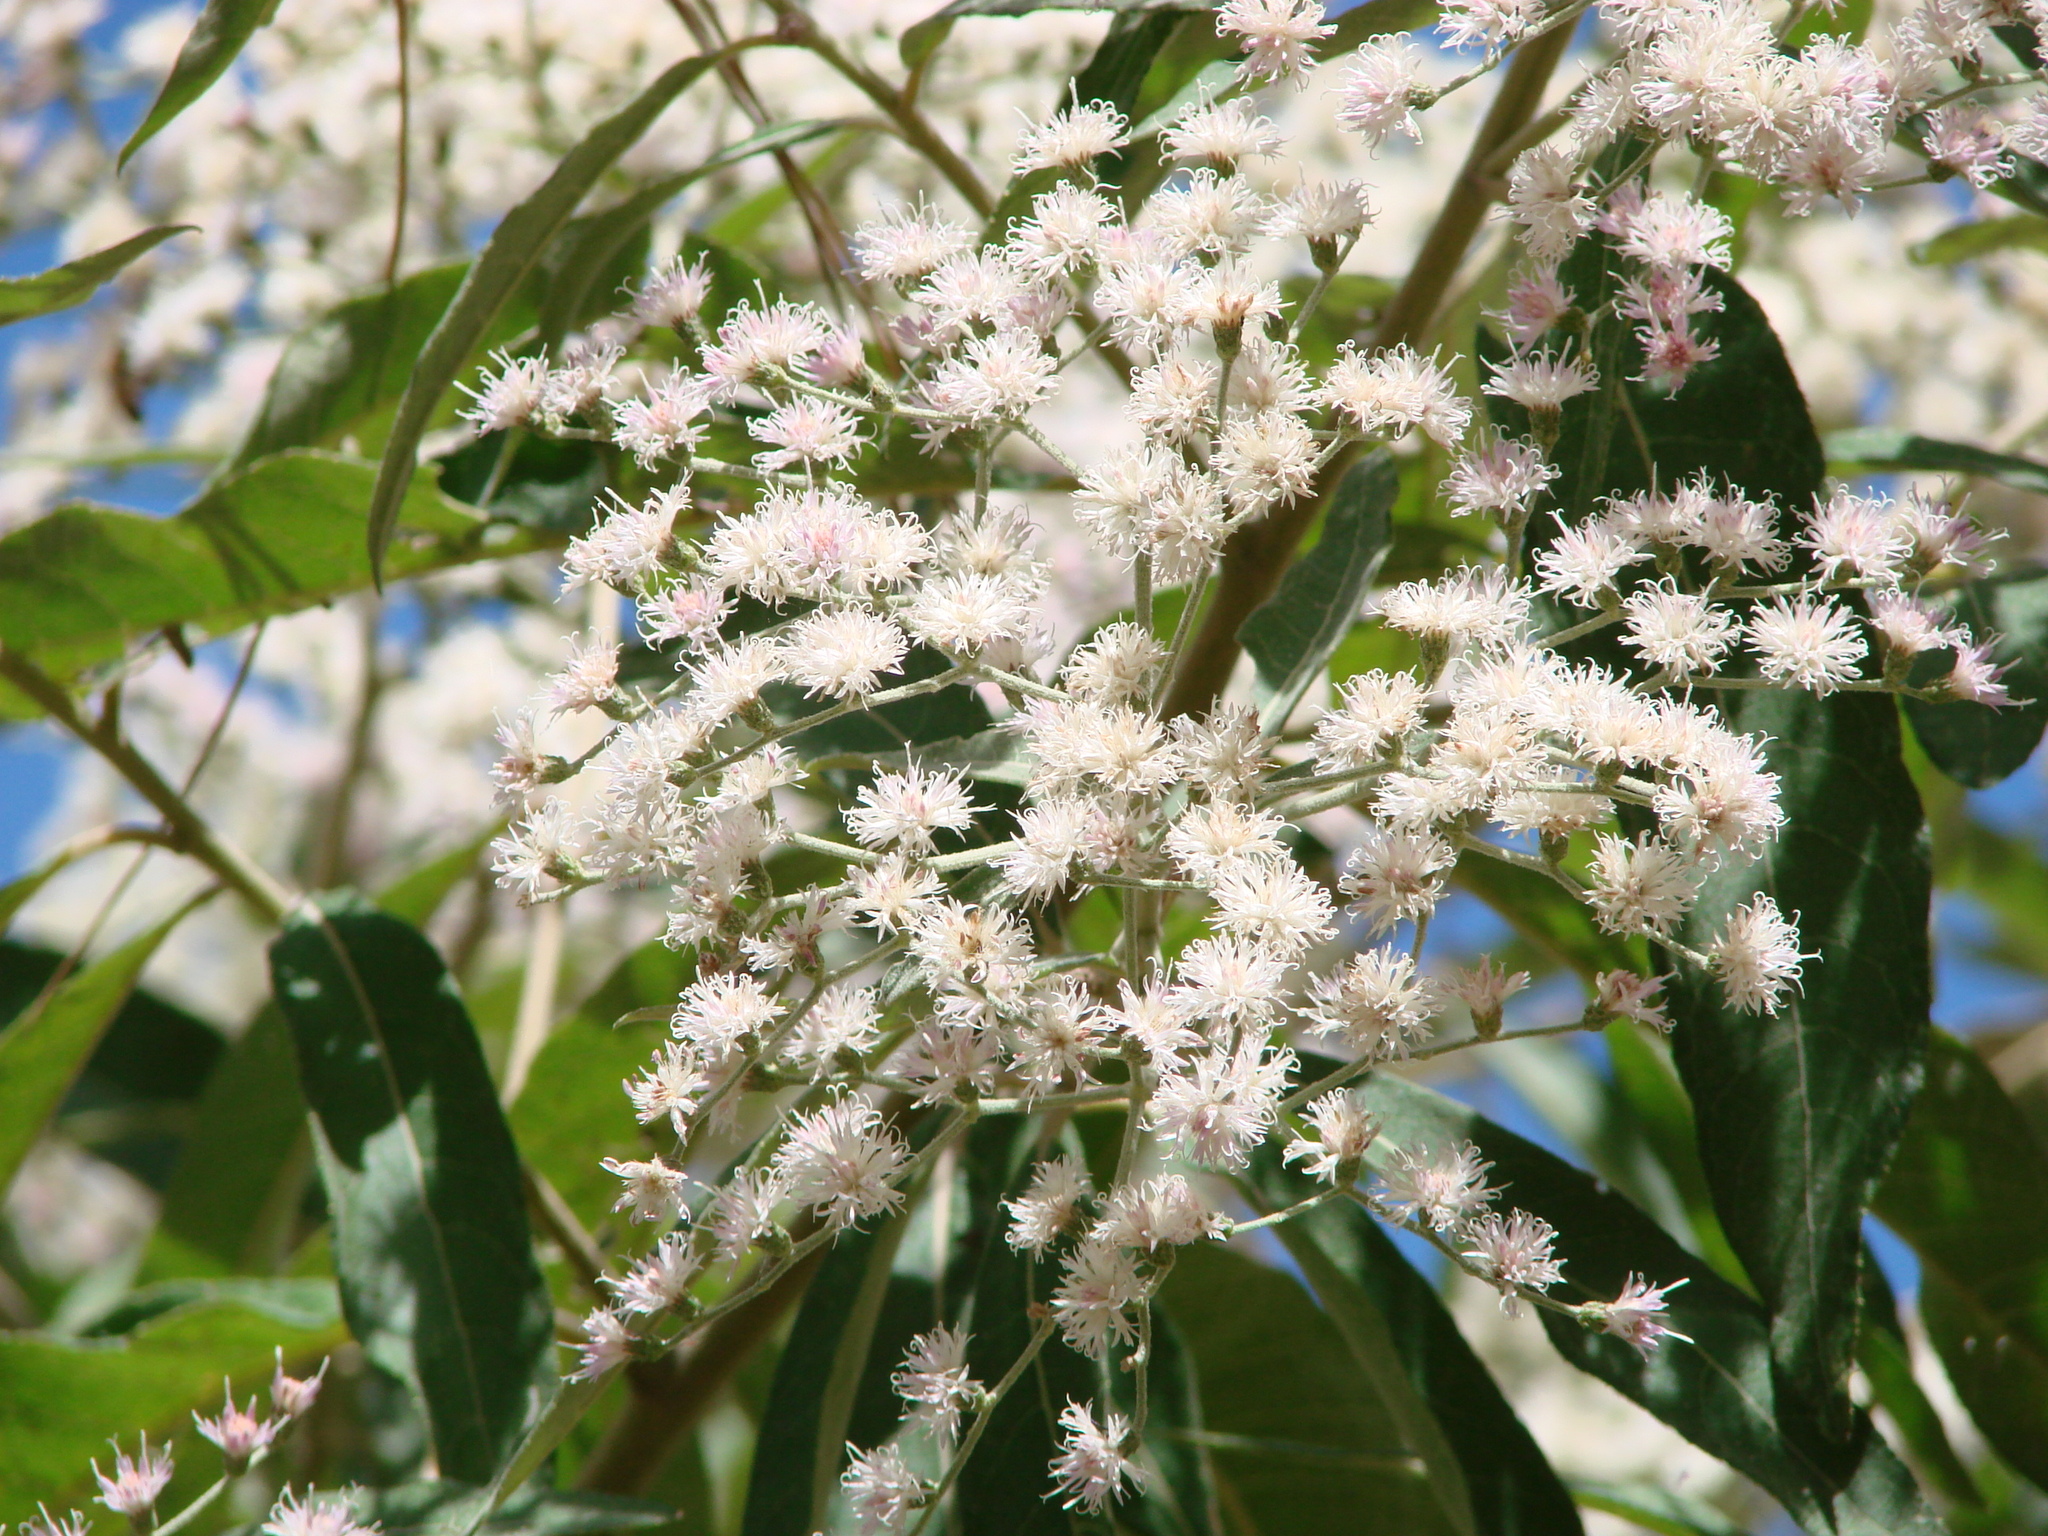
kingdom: Plantae
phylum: Tracheophyta
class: Magnoliopsida
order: Asterales
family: Asteraceae
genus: Cyrtocymura
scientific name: Cyrtocymura scorpioides
